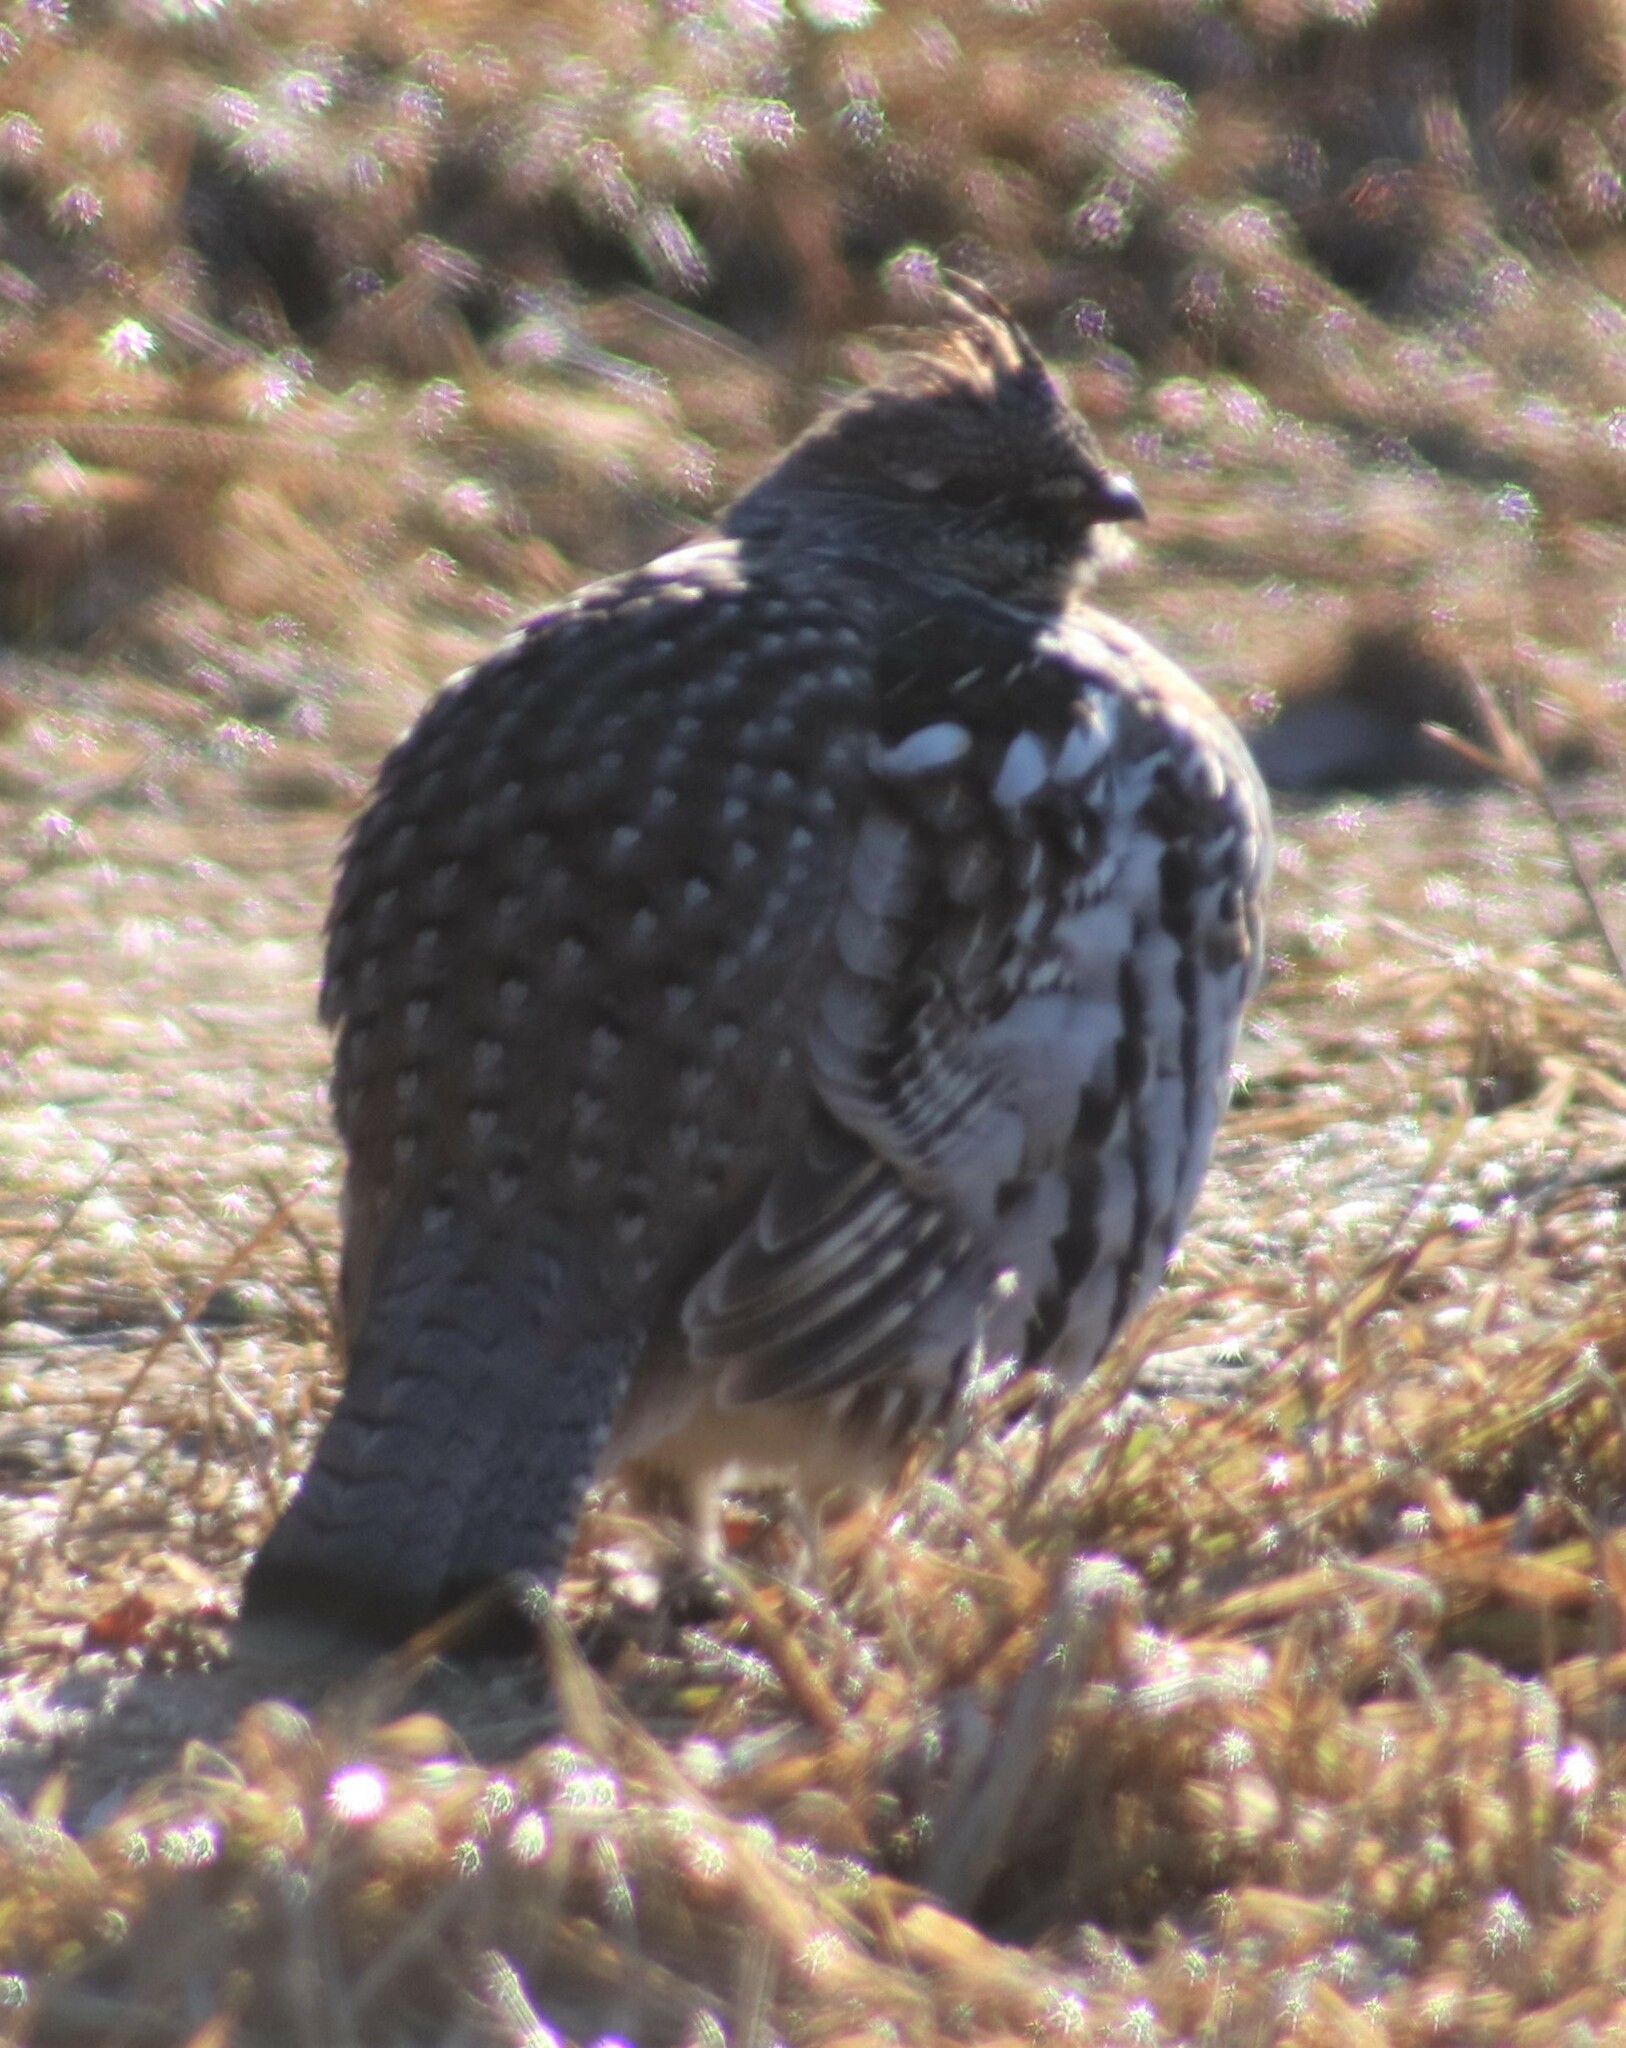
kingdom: Animalia
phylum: Chordata
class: Aves
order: Galliformes
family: Phasianidae
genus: Bonasa
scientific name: Bonasa umbellus
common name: Ruffed grouse
